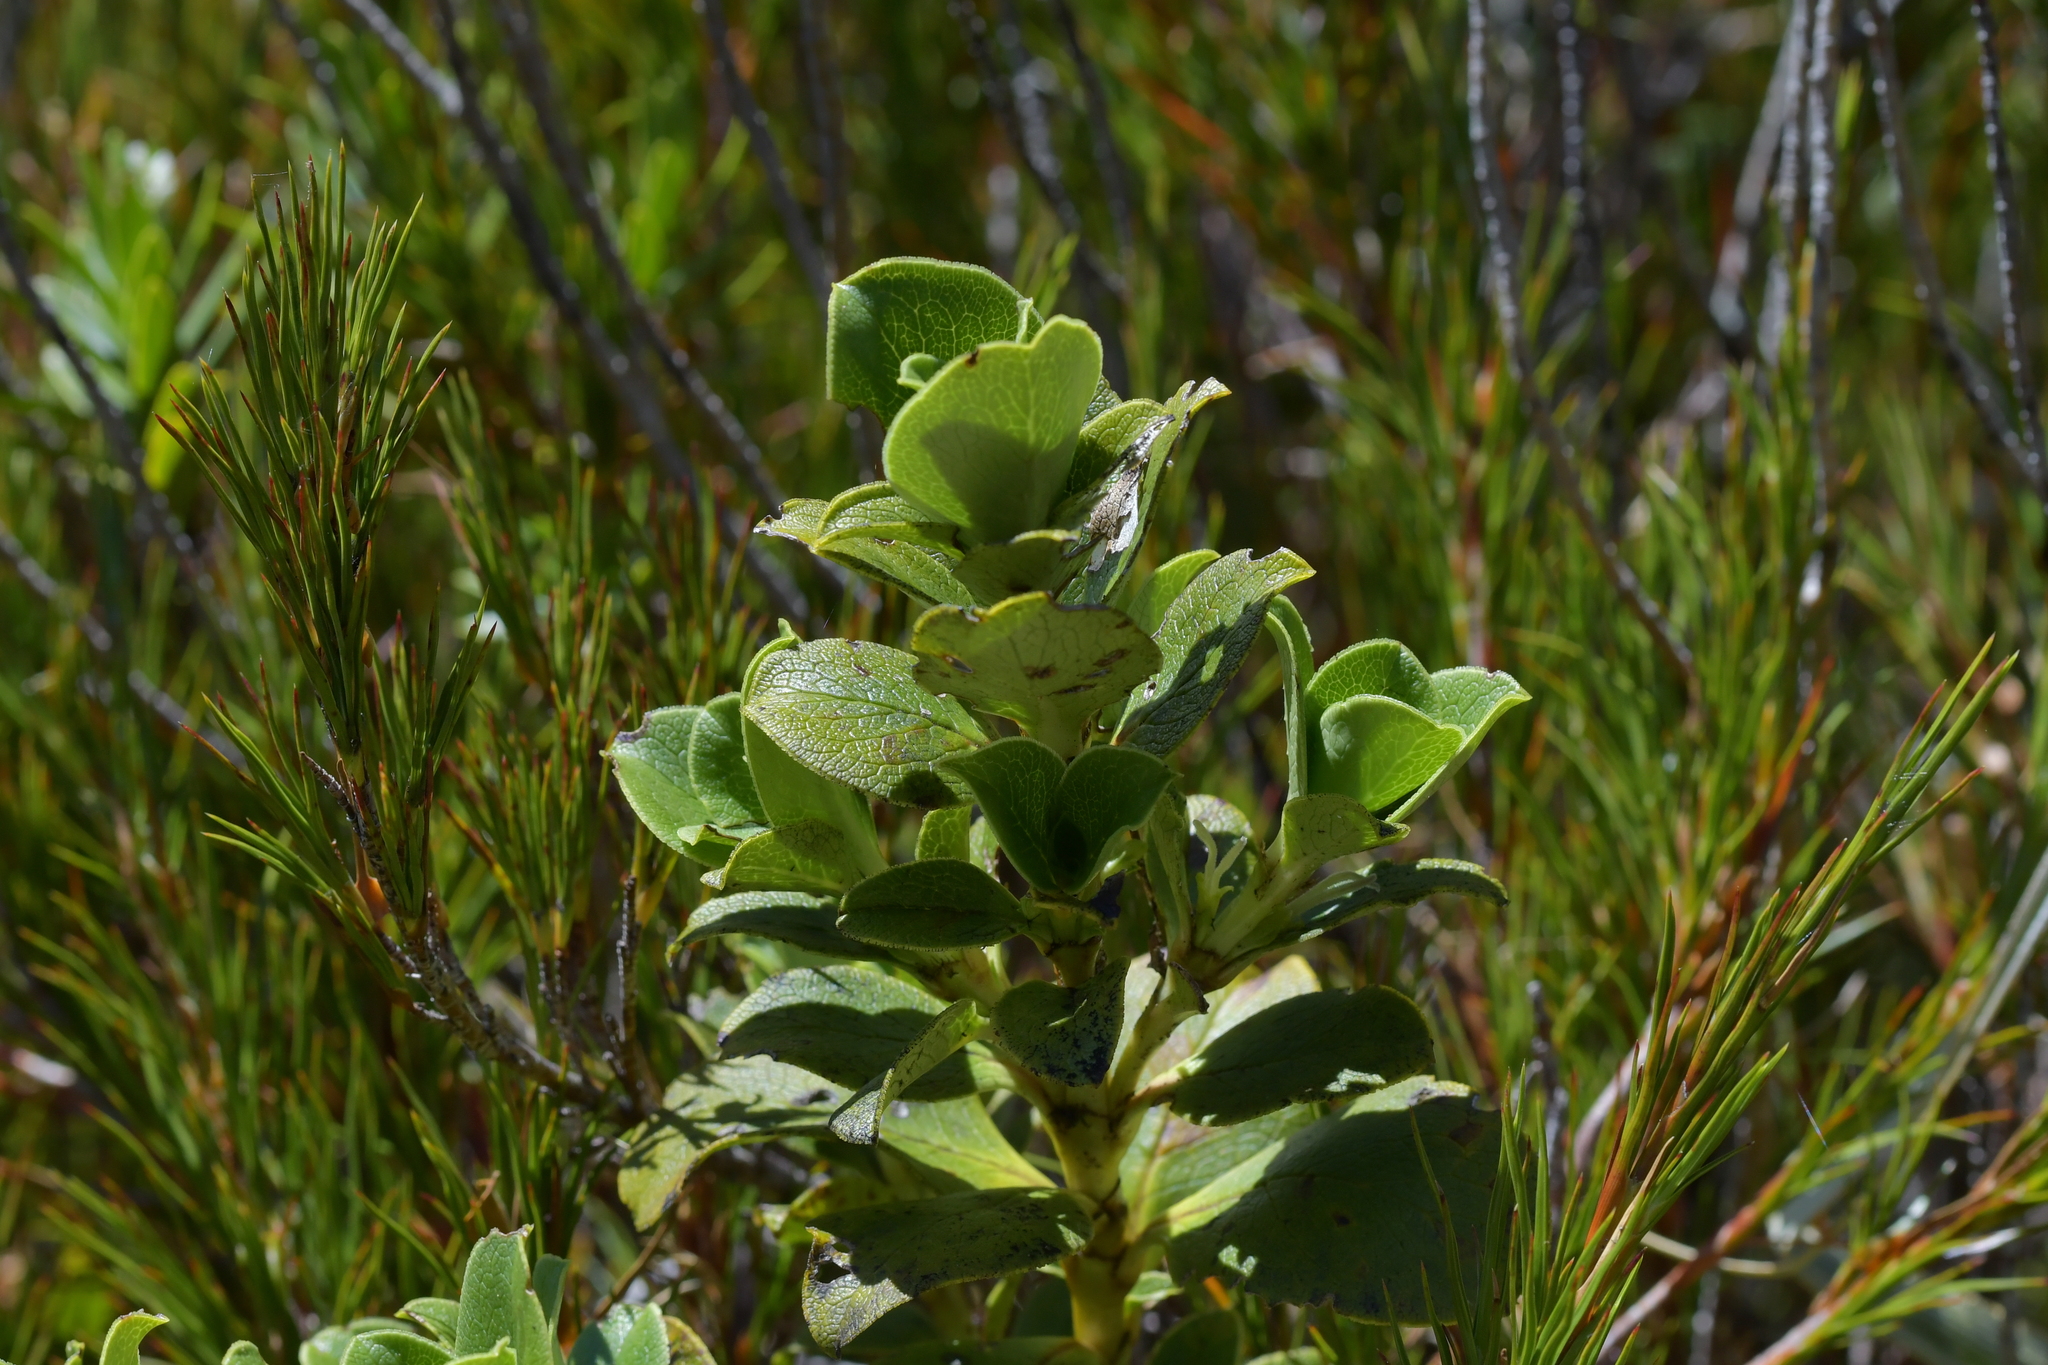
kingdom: Plantae
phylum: Tracheophyta
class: Magnoliopsida
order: Gentianales
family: Rubiaceae
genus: Coprosma
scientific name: Coprosma serrulata
